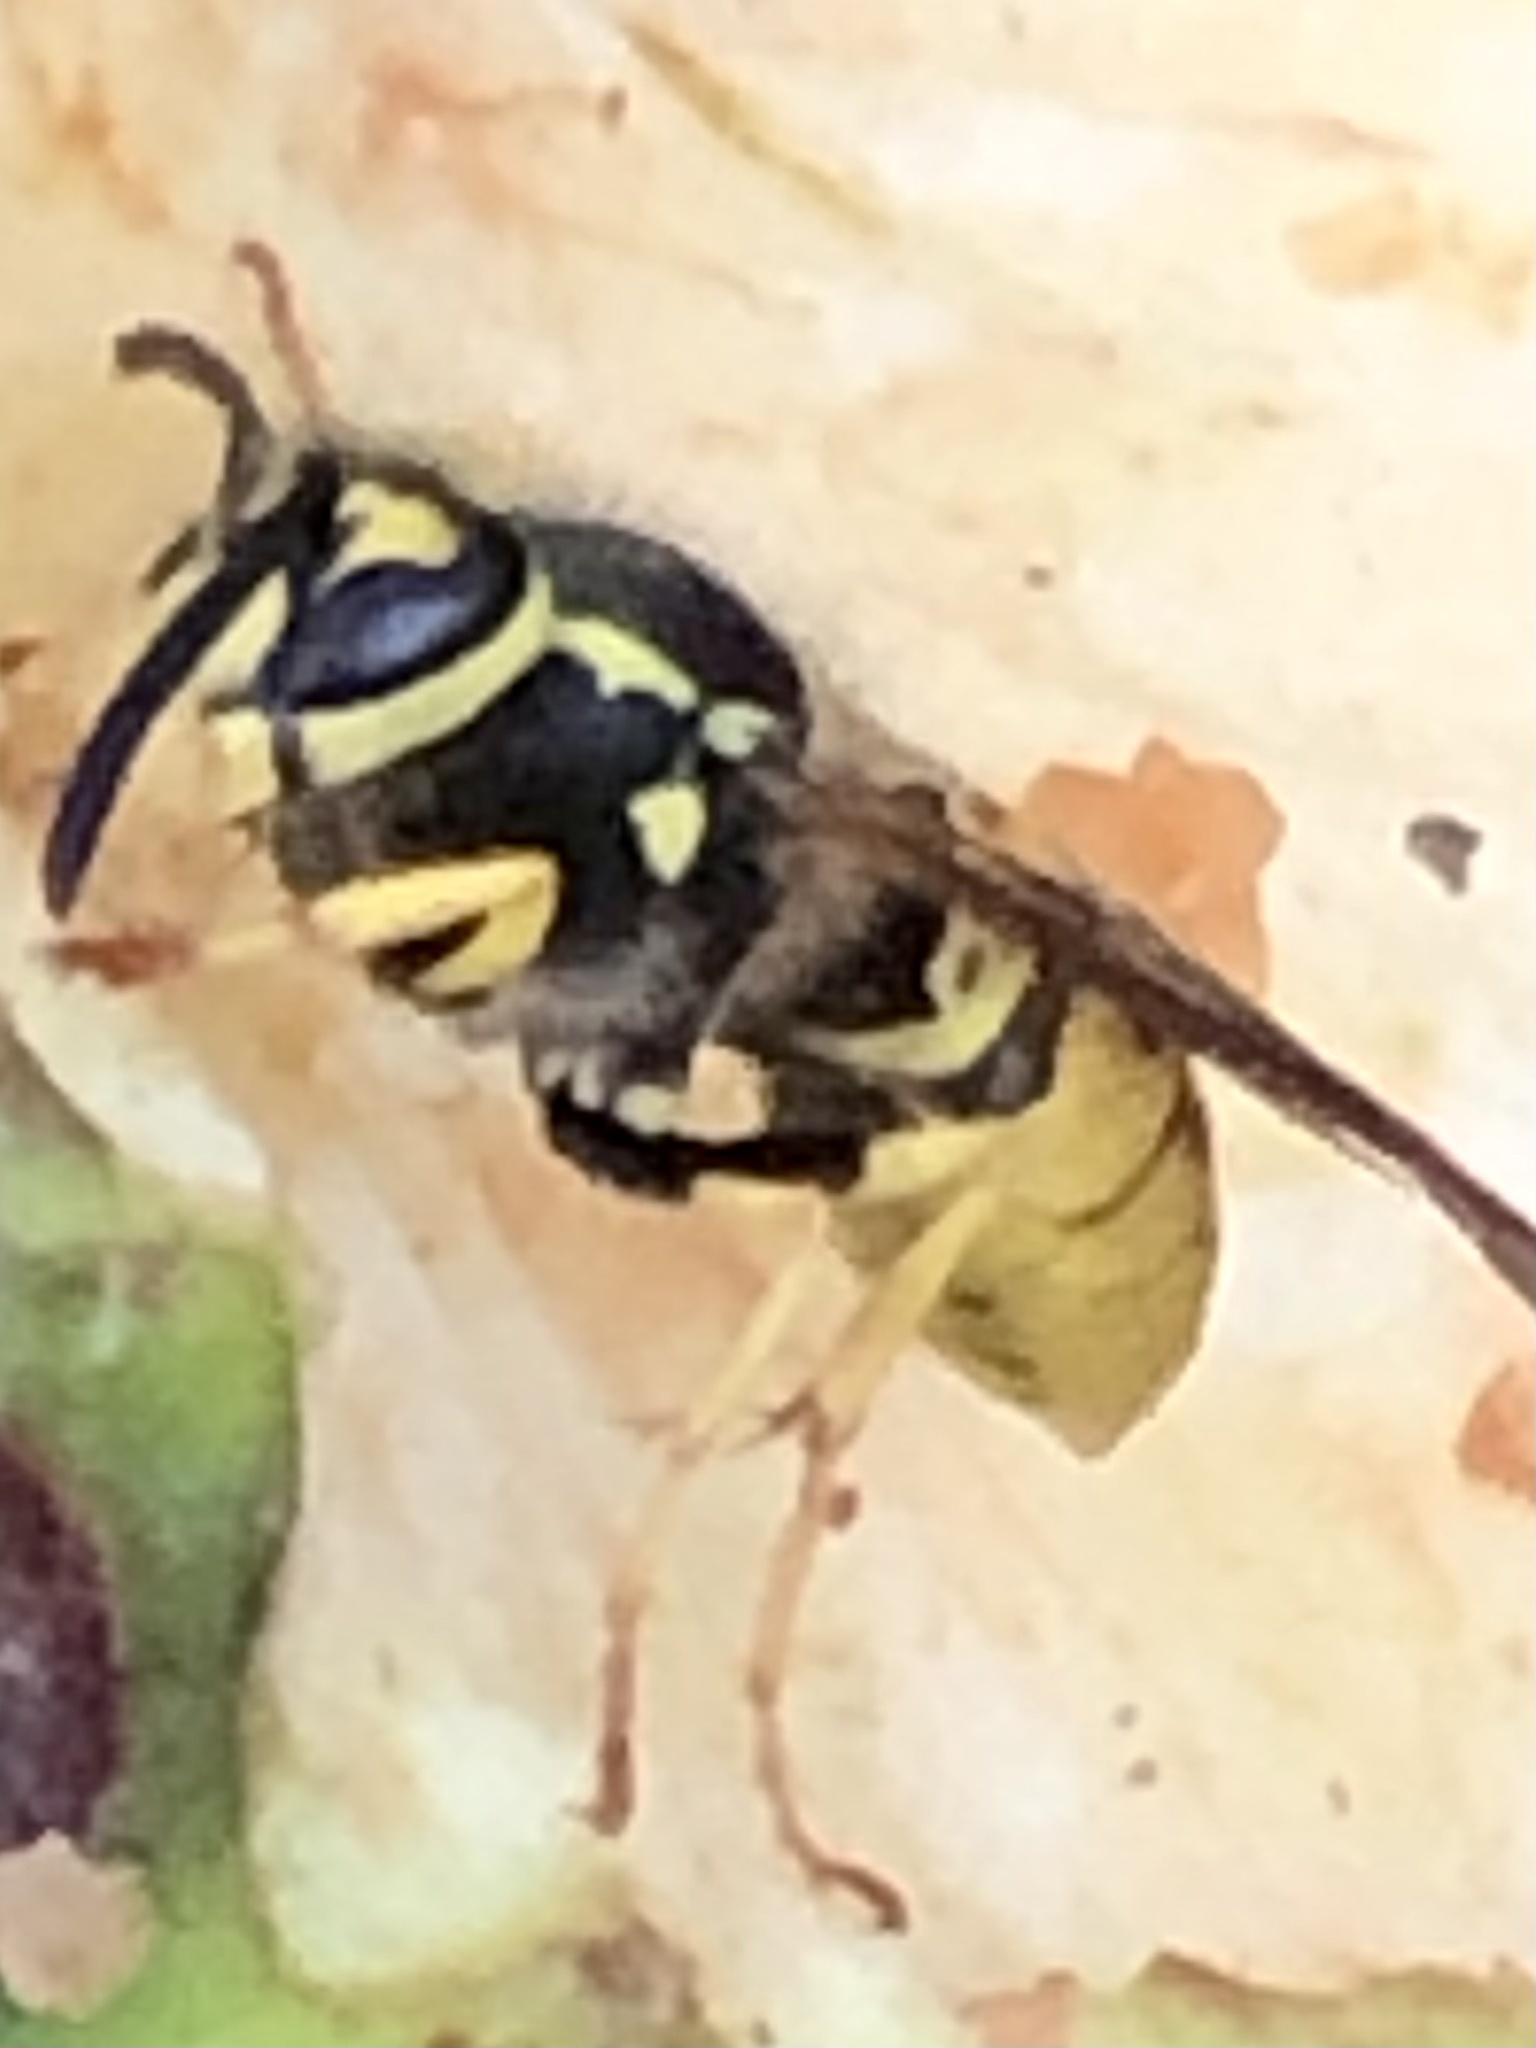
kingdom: Animalia
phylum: Arthropoda
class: Insecta
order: Hymenoptera
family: Vespidae
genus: Vespula
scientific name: Vespula germanica
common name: German wasp
